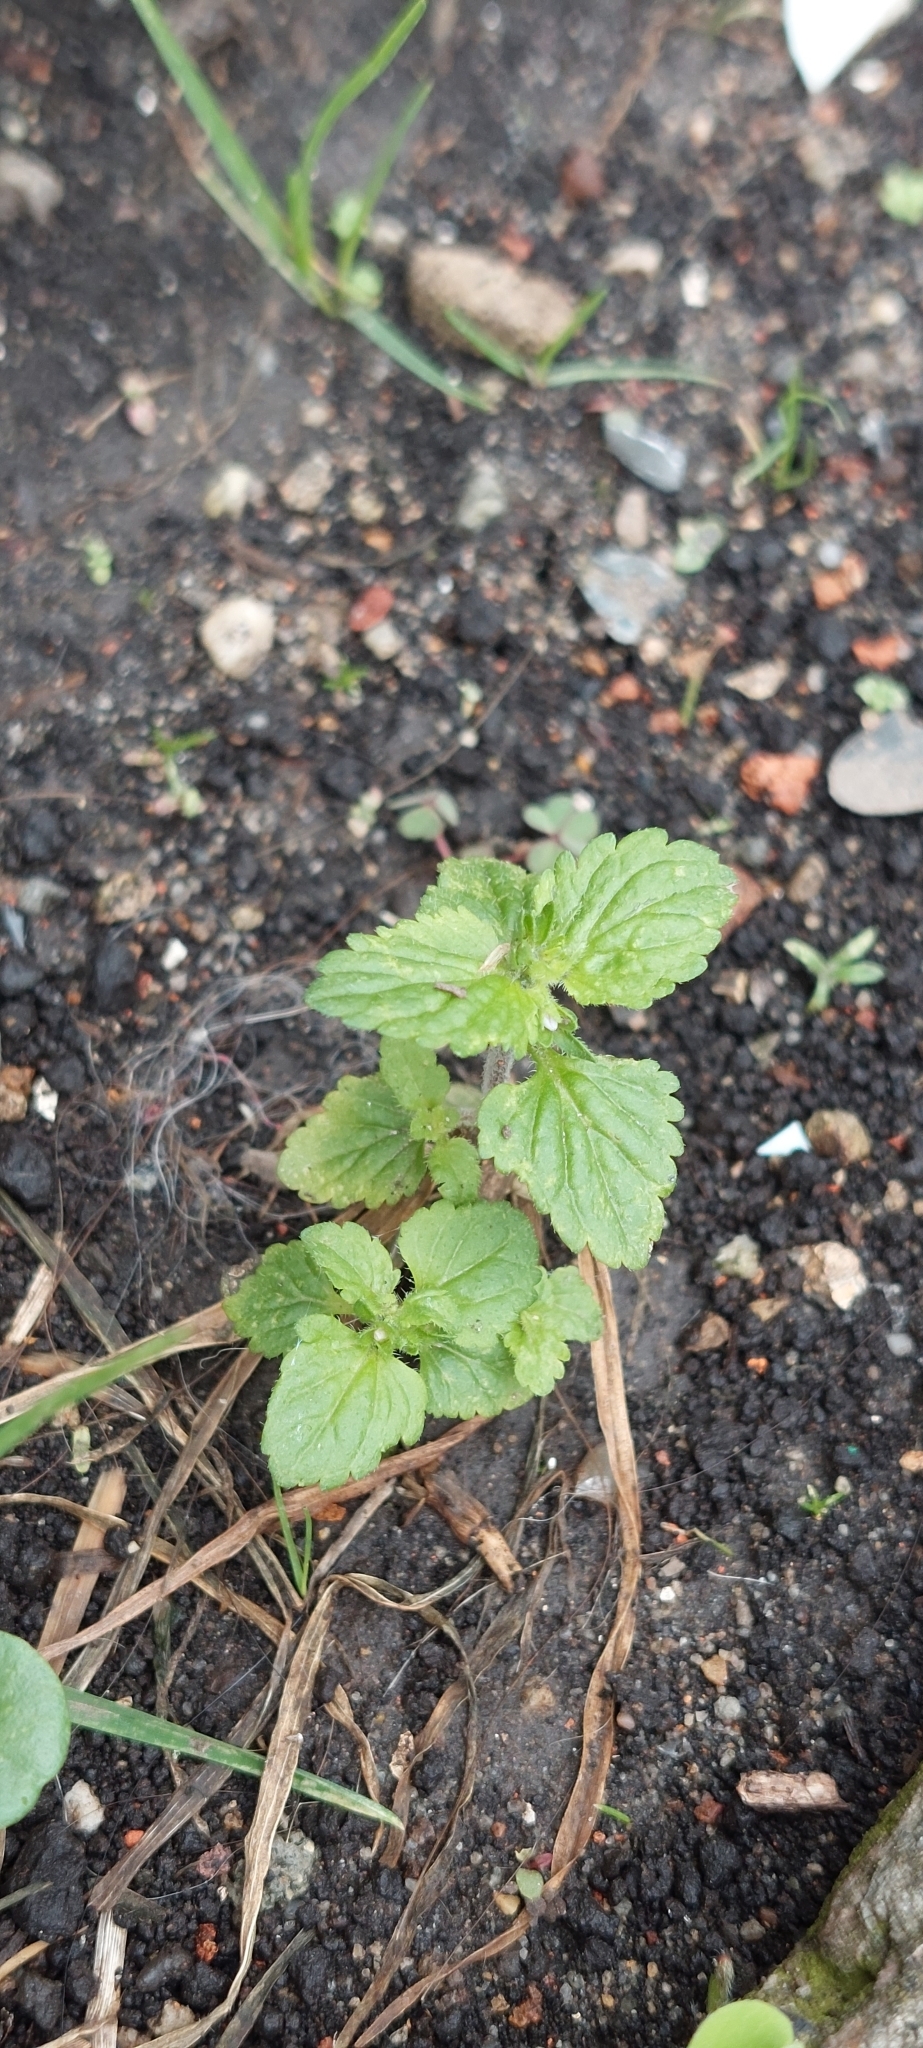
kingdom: Plantae
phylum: Tracheophyta
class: Magnoliopsida
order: Lamiales
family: Plantaginaceae
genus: Veronica
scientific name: Veronica javanica
